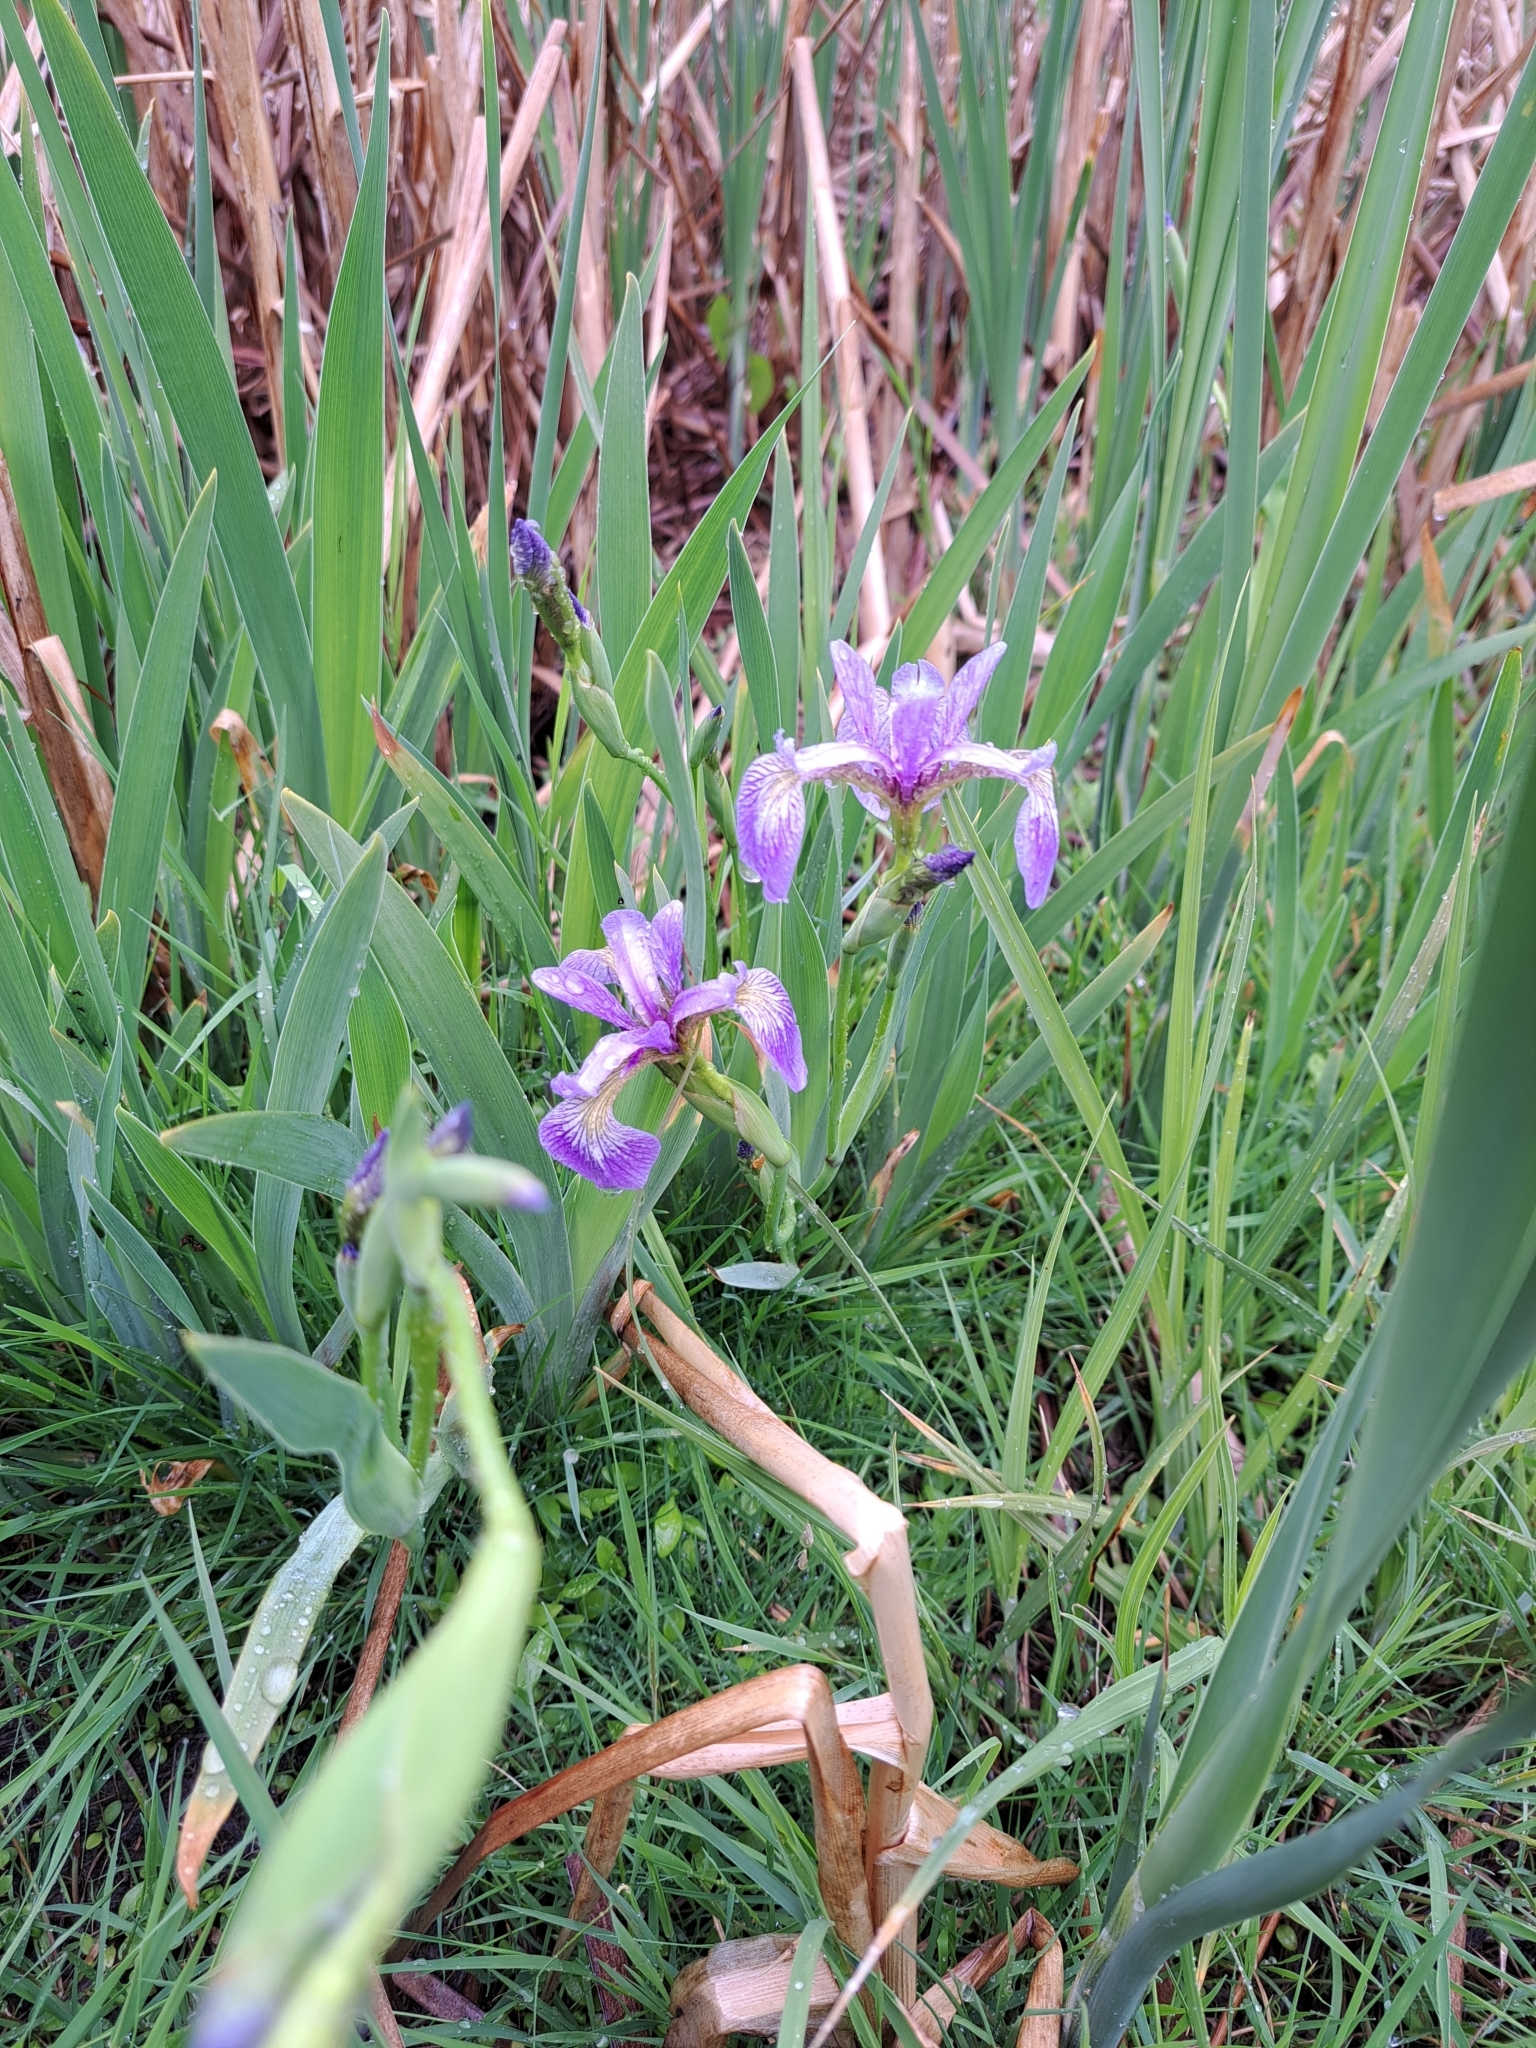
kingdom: Plantae
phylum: Tracheophyta
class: Liliopsida
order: Asparagales
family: Iridaceae
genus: Iris
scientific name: Iris versicolor
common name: Purple iris
